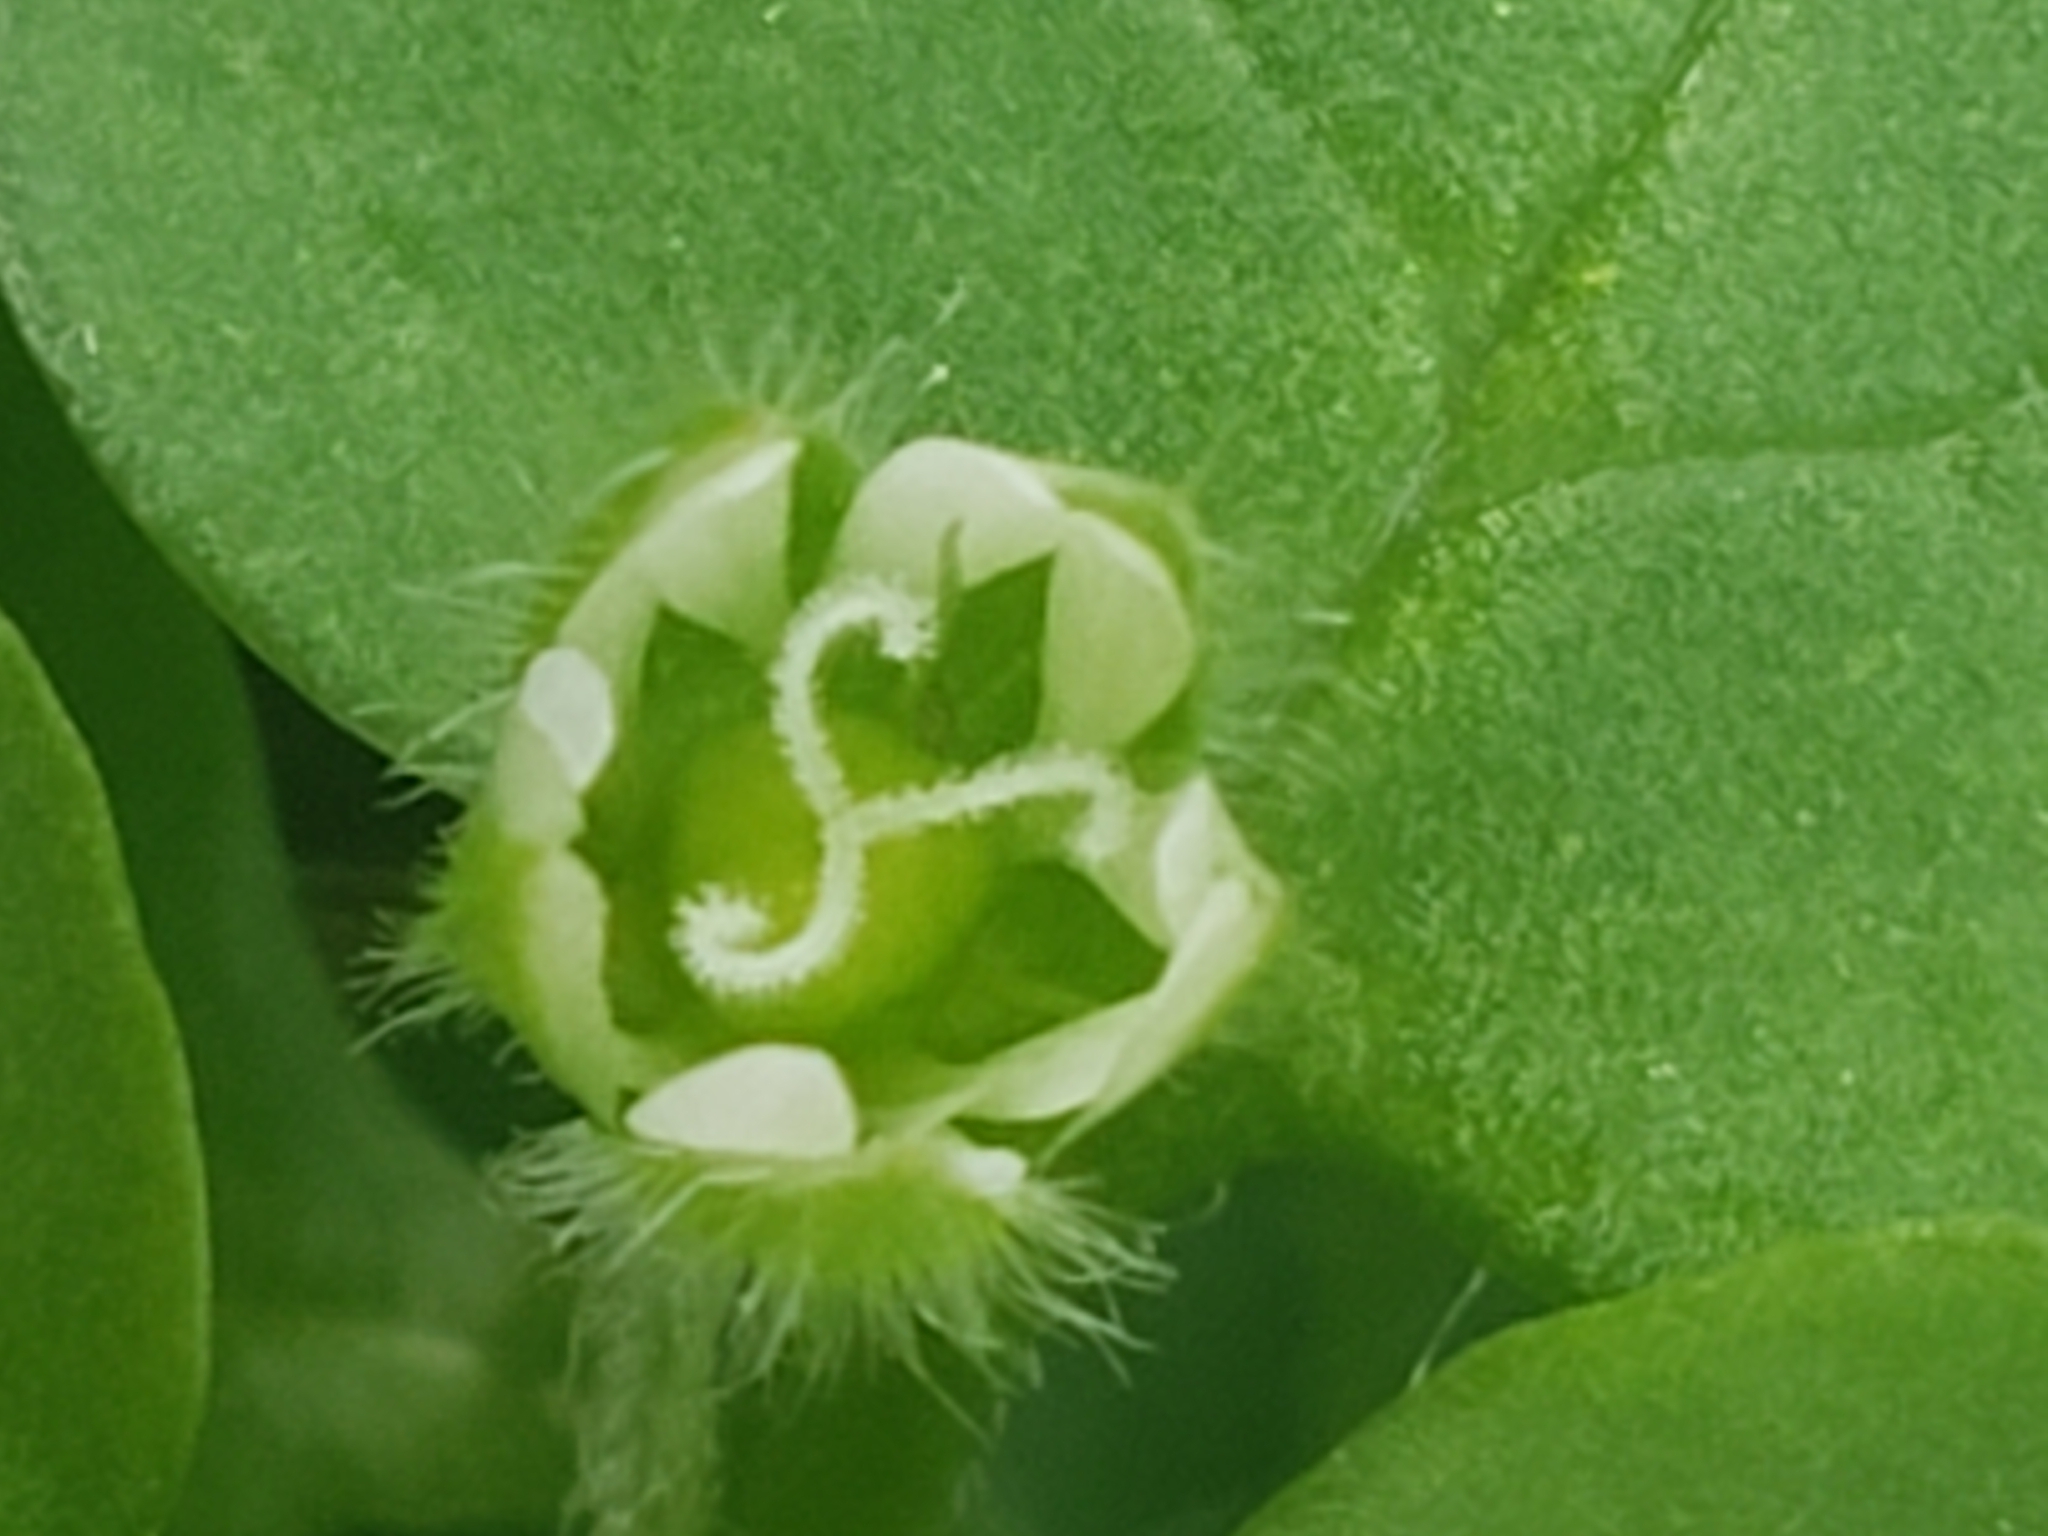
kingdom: Plantae
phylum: Tracheophyta
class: Magnoliopsida
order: Caryophyllales
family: Caryophyllaceae
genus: Stellaria
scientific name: Stellaria media
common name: Common chickweed
